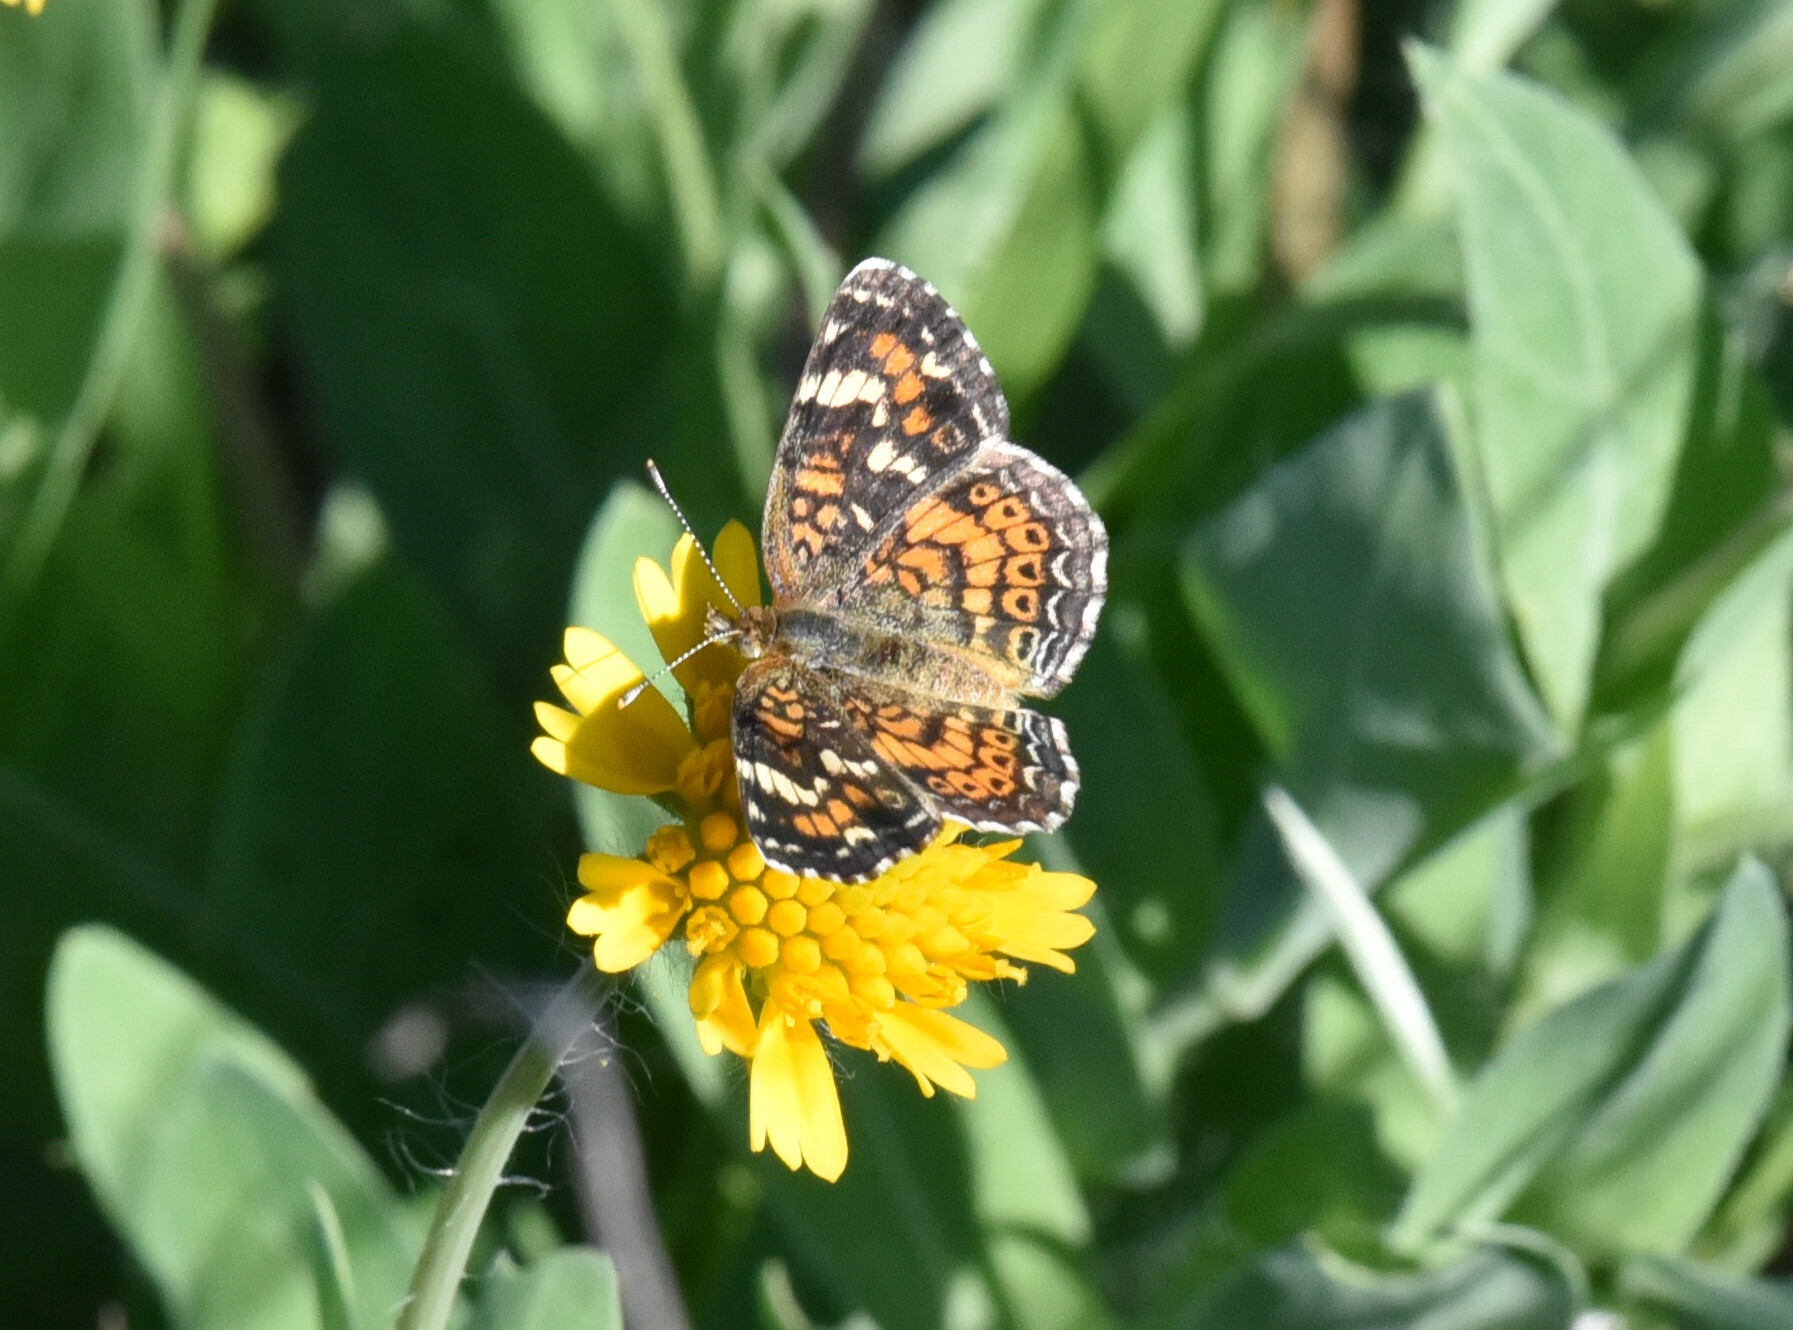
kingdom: Animalia
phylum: Arthropoda
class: Insecta
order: Lepidoptera
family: Nymphalidae
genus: Phyciodes
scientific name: Phyciodes phaon
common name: Phaon crescent
